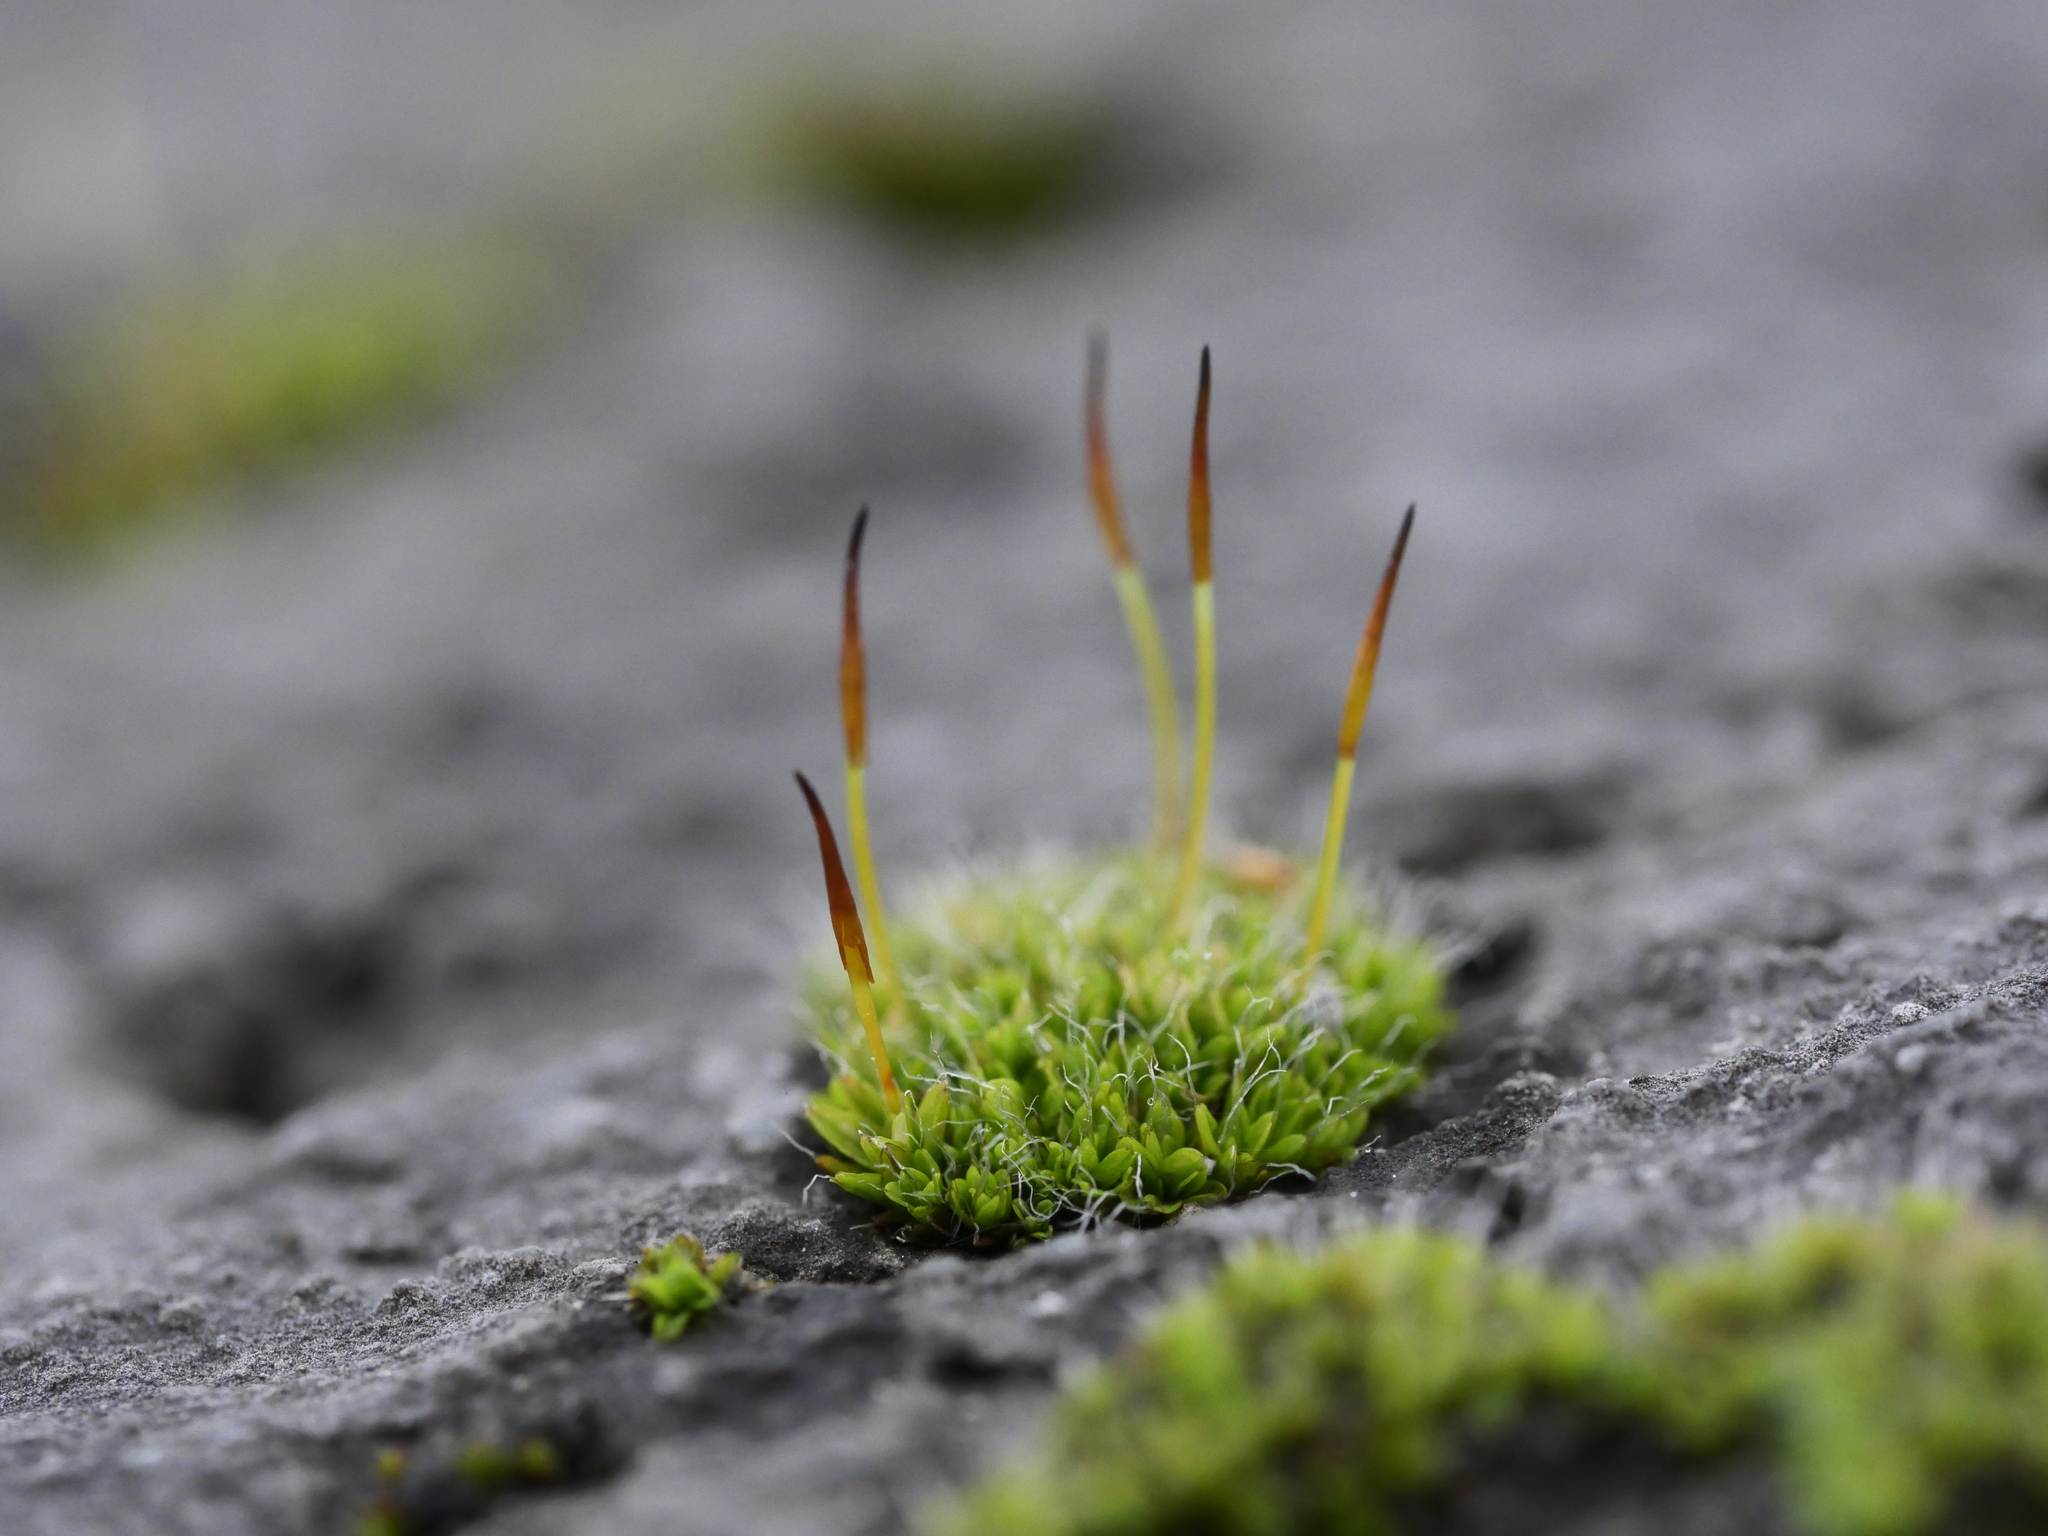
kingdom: Plantae
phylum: Bryophyta
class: Bryopsida
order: Pottiales
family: Pottiaceae
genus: Tortula
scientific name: Tortula muralis
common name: Wall screw-moss
